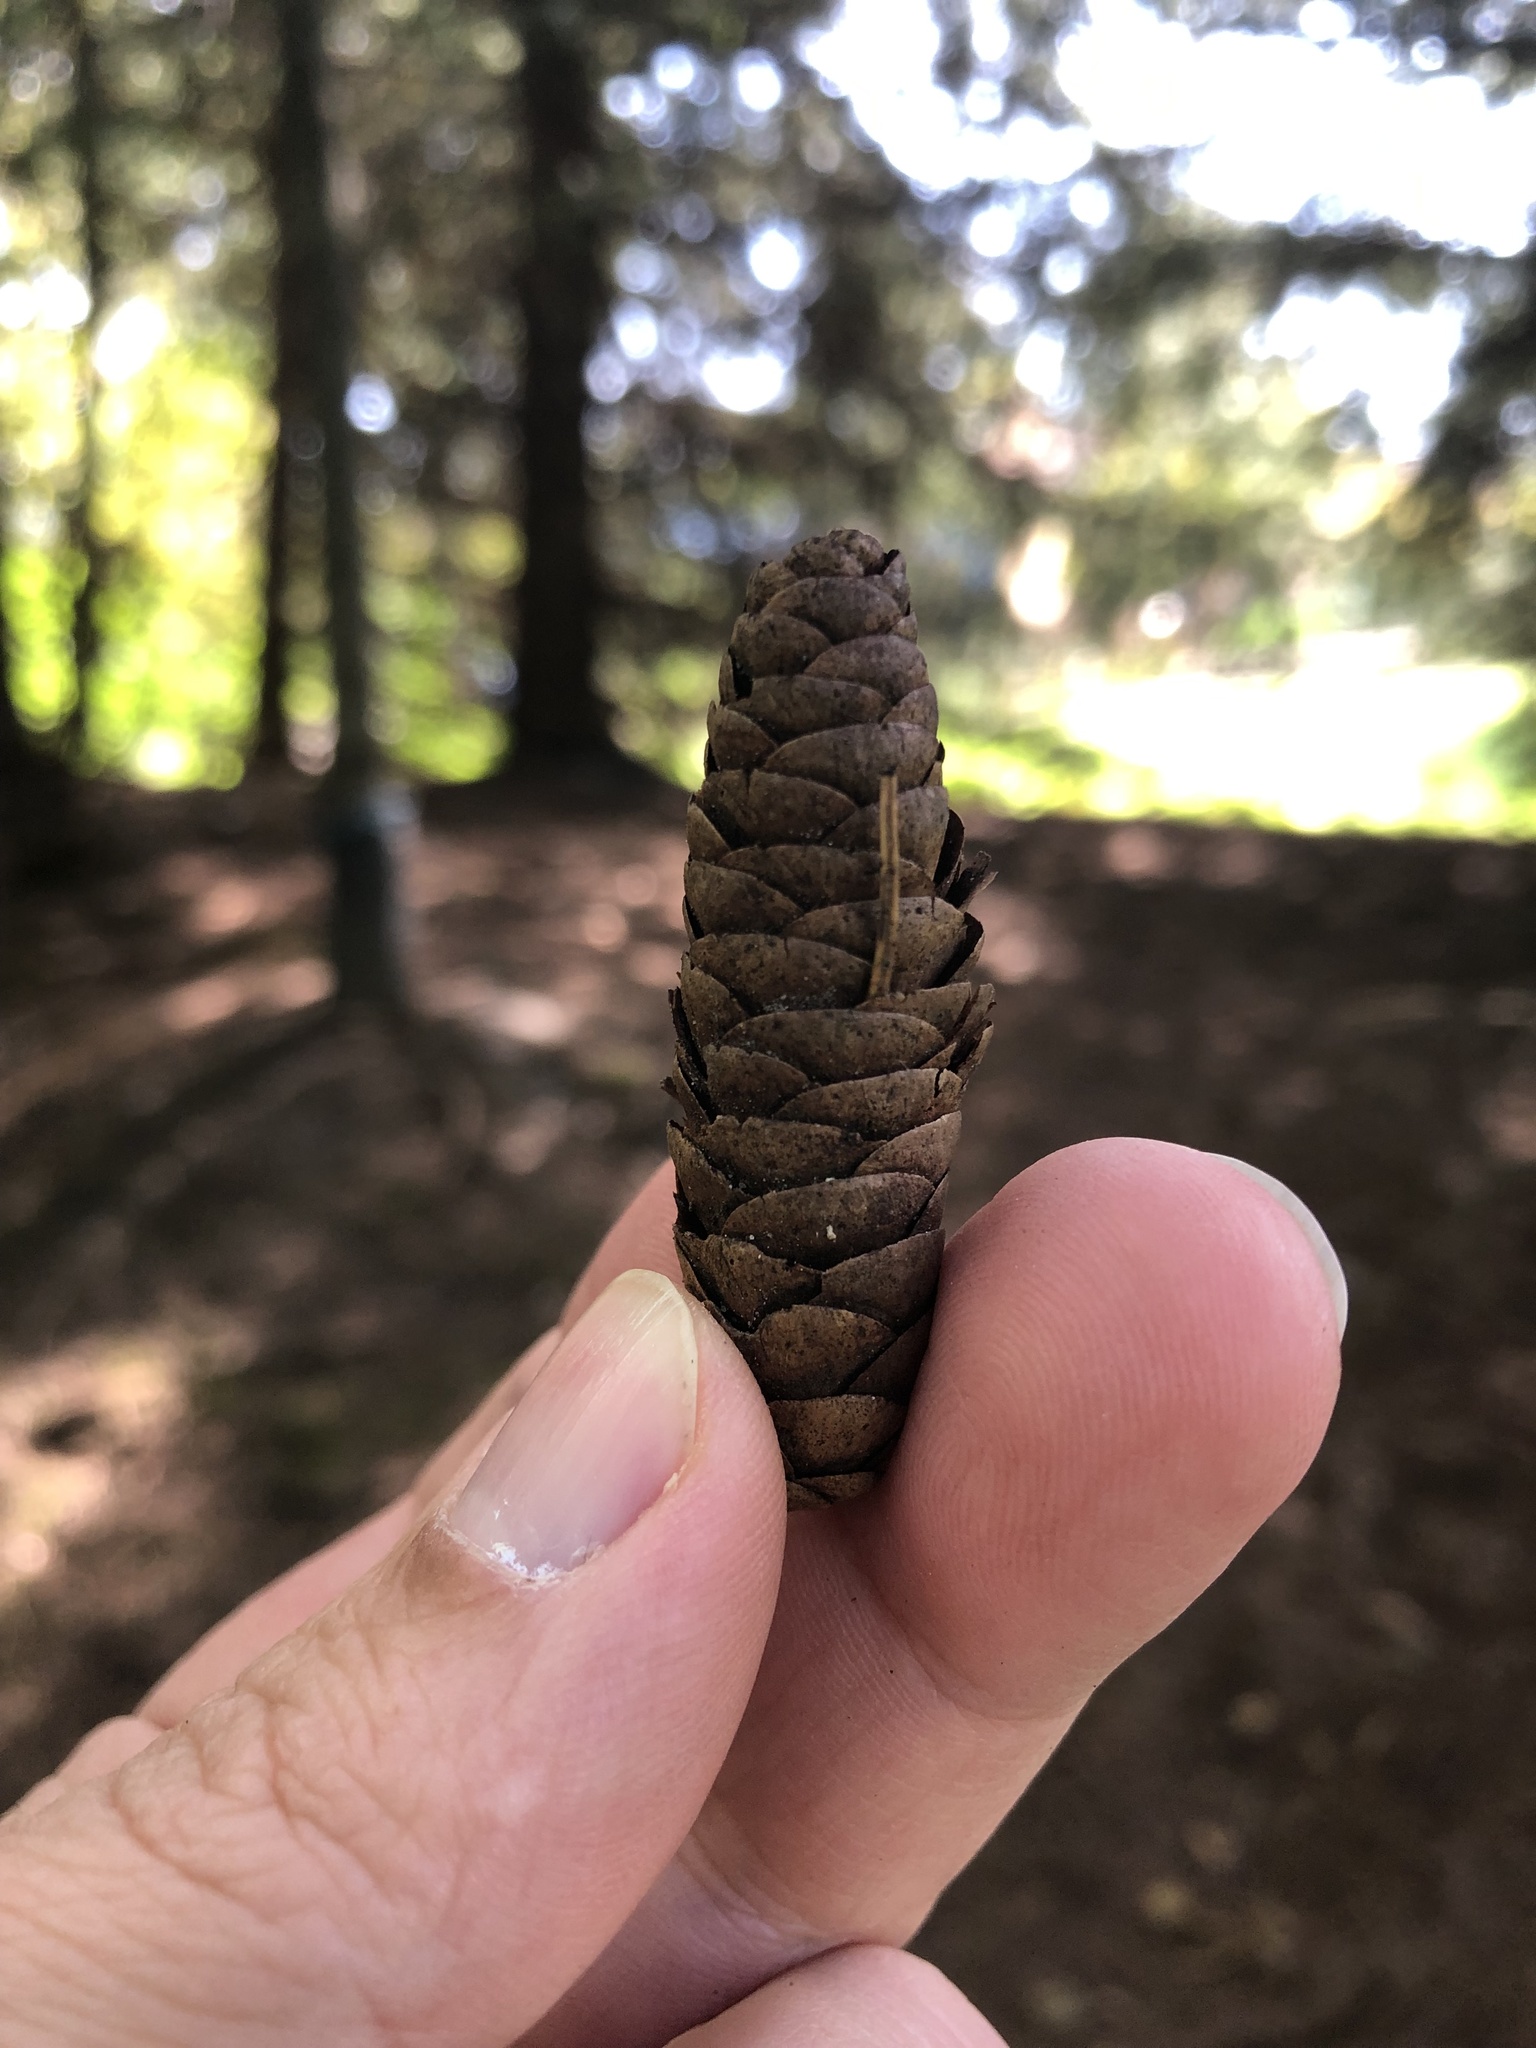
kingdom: Plantae
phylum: Tracheophyta
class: Pinopsida
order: Pinales
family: Pinaceae
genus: Picea
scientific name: Picea glauca
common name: White spruce
